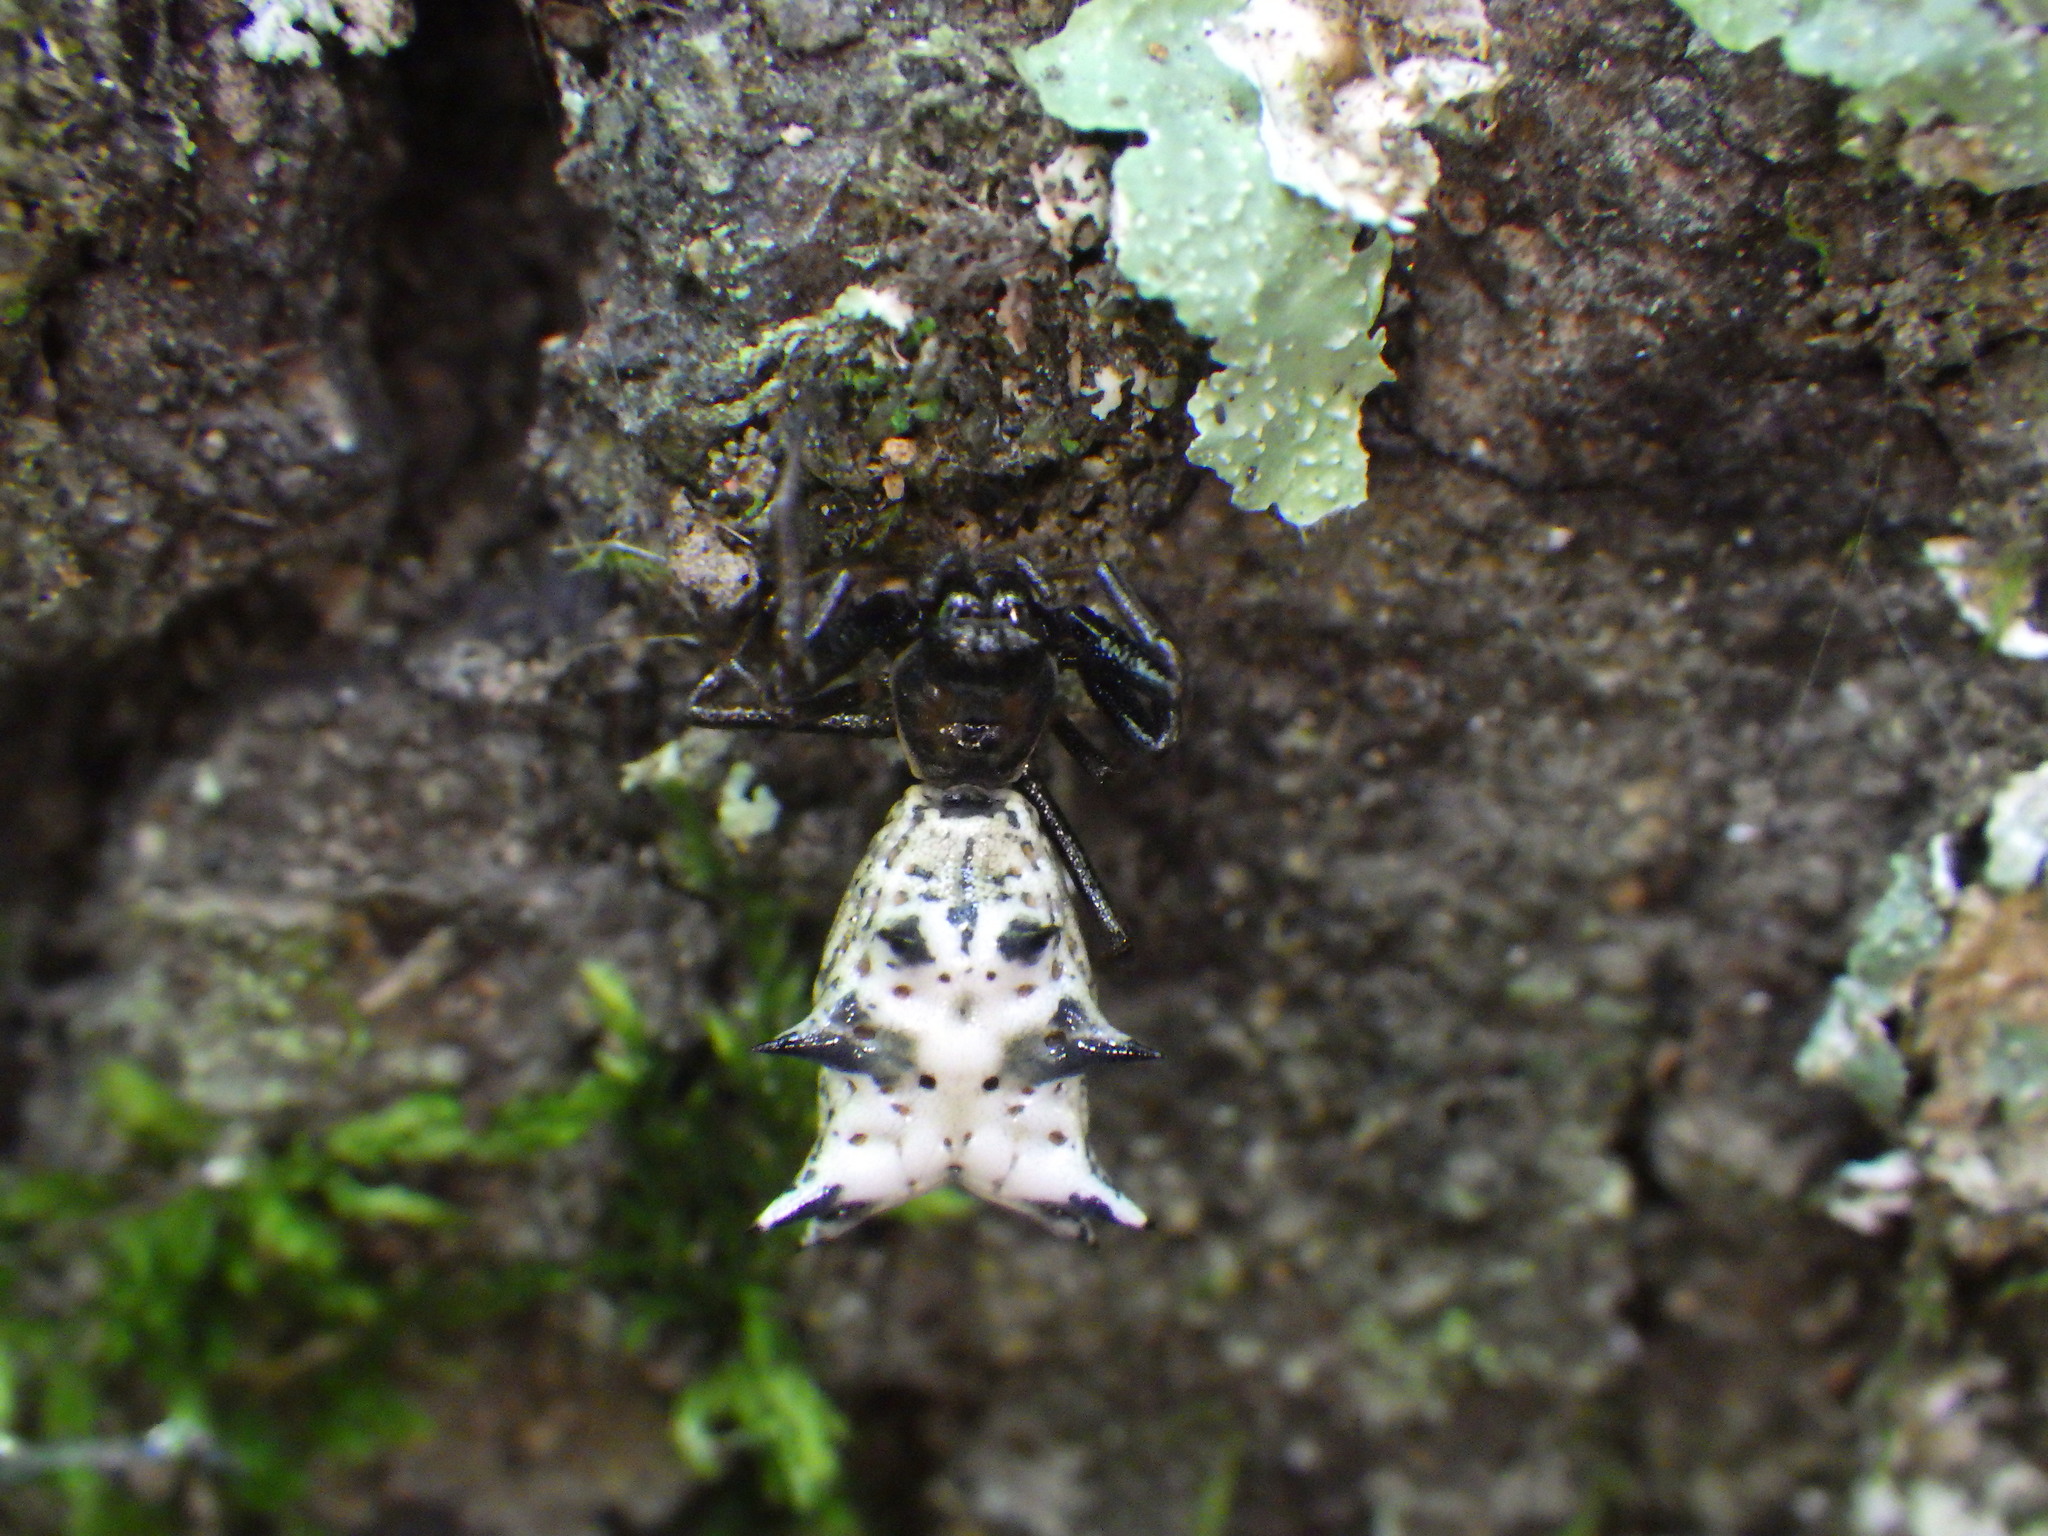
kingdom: Animalia
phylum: Arthropoda
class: Arachnida
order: Araneae
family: Araneidae
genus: Micrathena
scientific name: Micrathena gracilis
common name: Orb weavers
